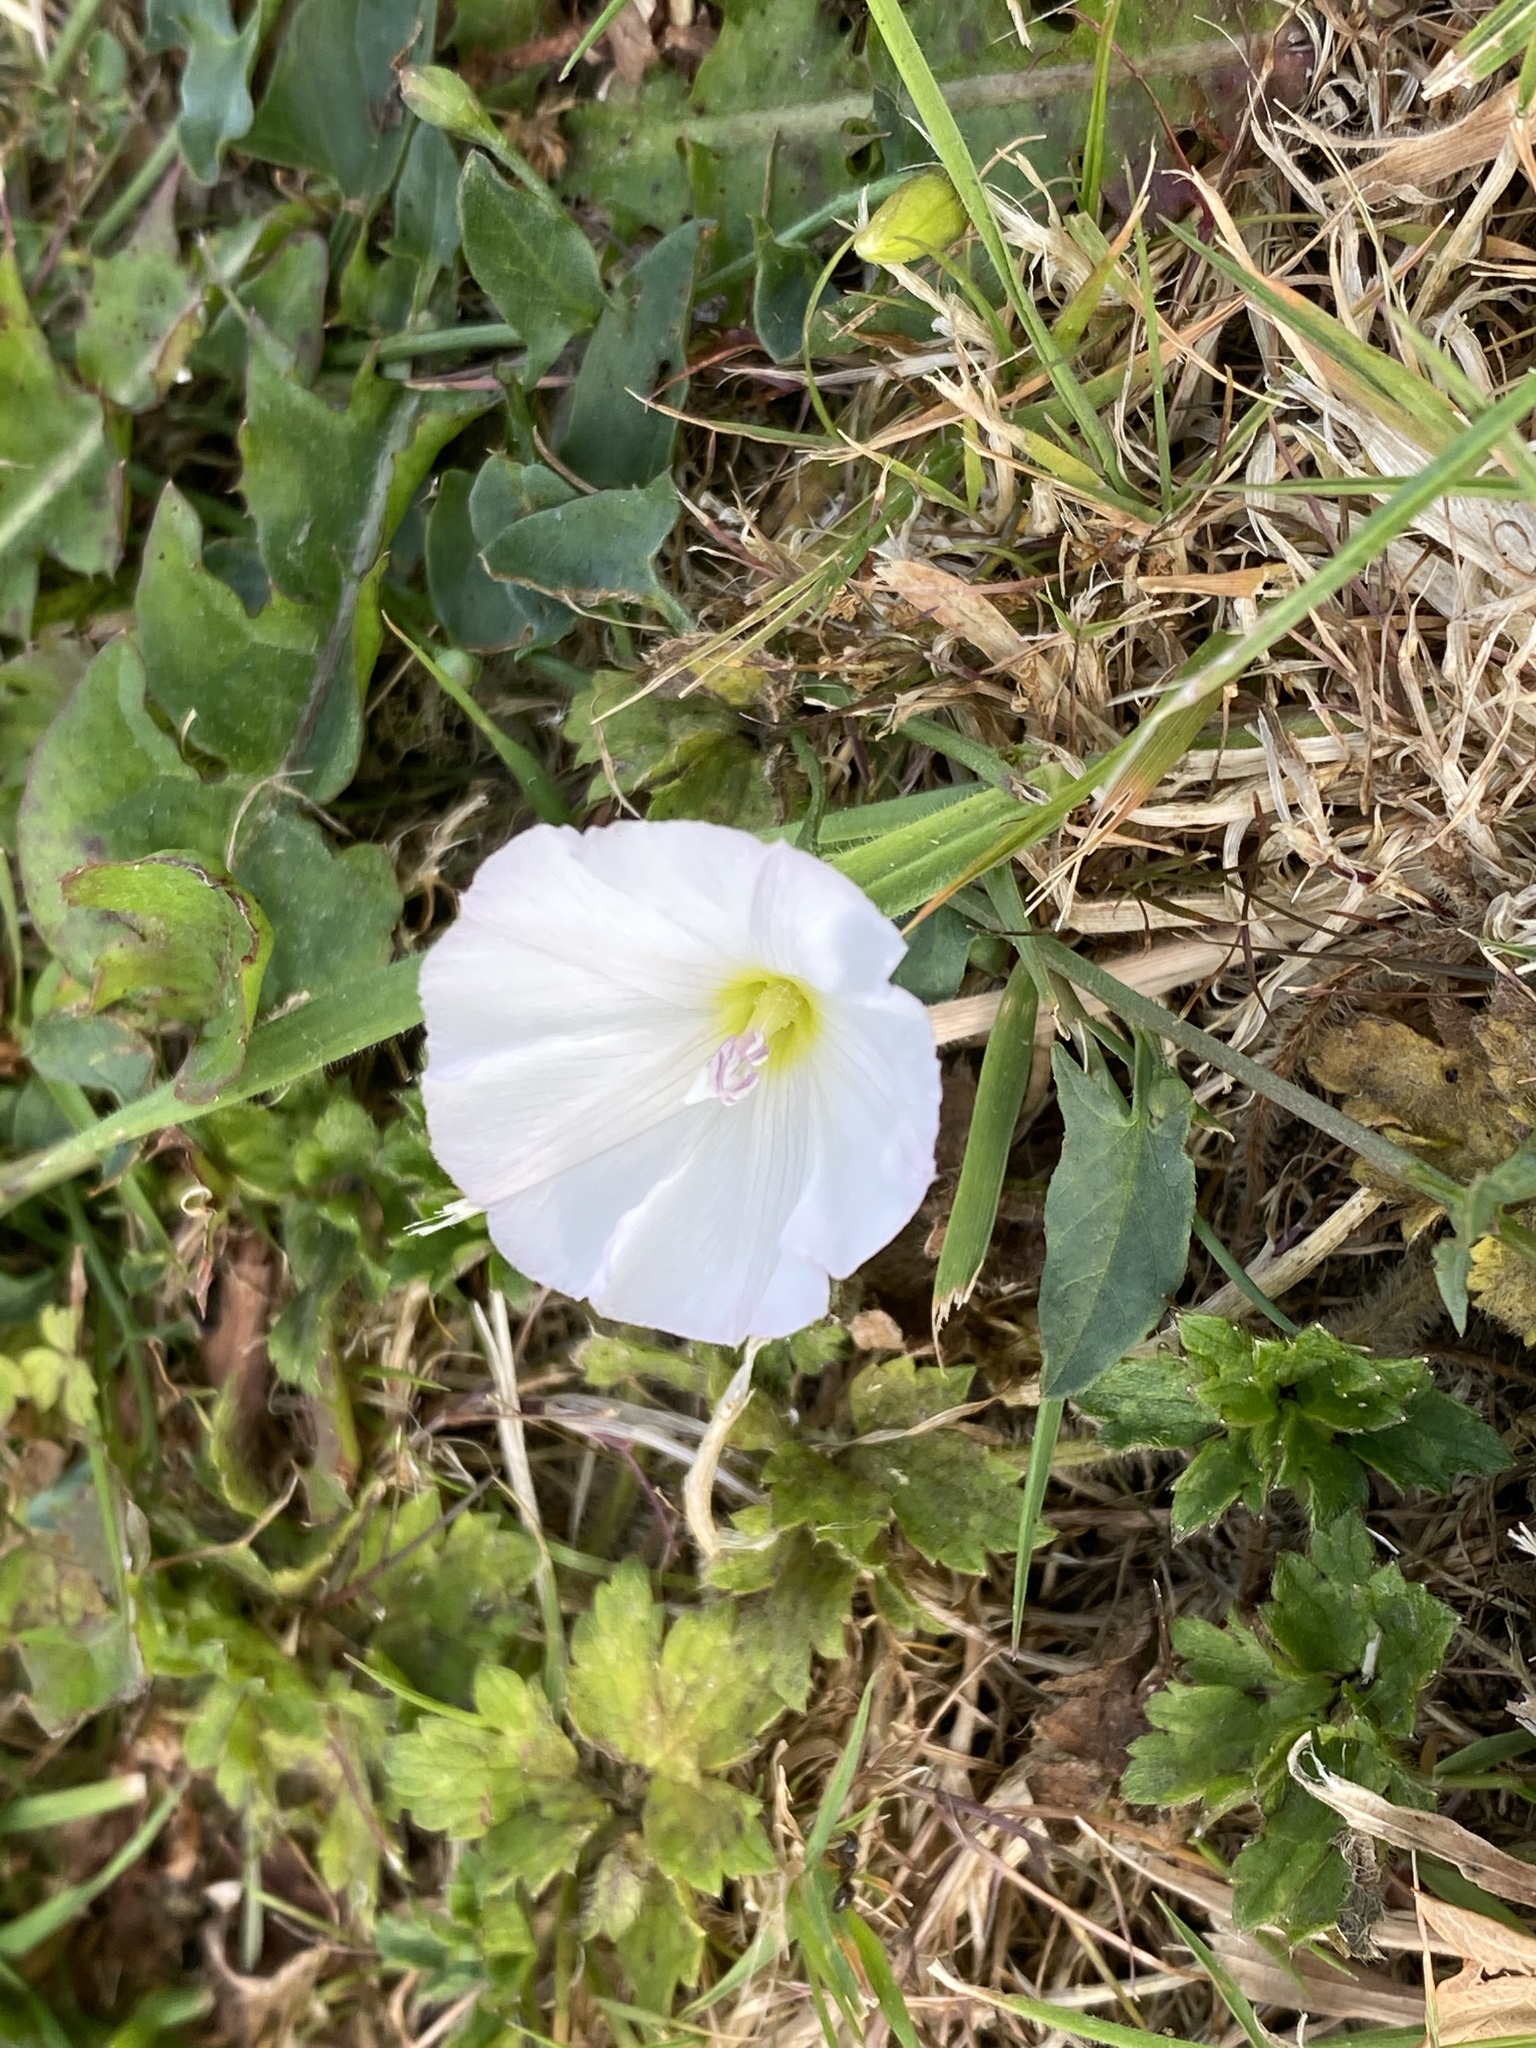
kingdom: Plantae
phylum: Tracheophyta
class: Magnoliopsida
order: Solanales
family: Convolvulaceae
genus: Convolvulus
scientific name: Convolvulus arvensis
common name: Field bindweed
